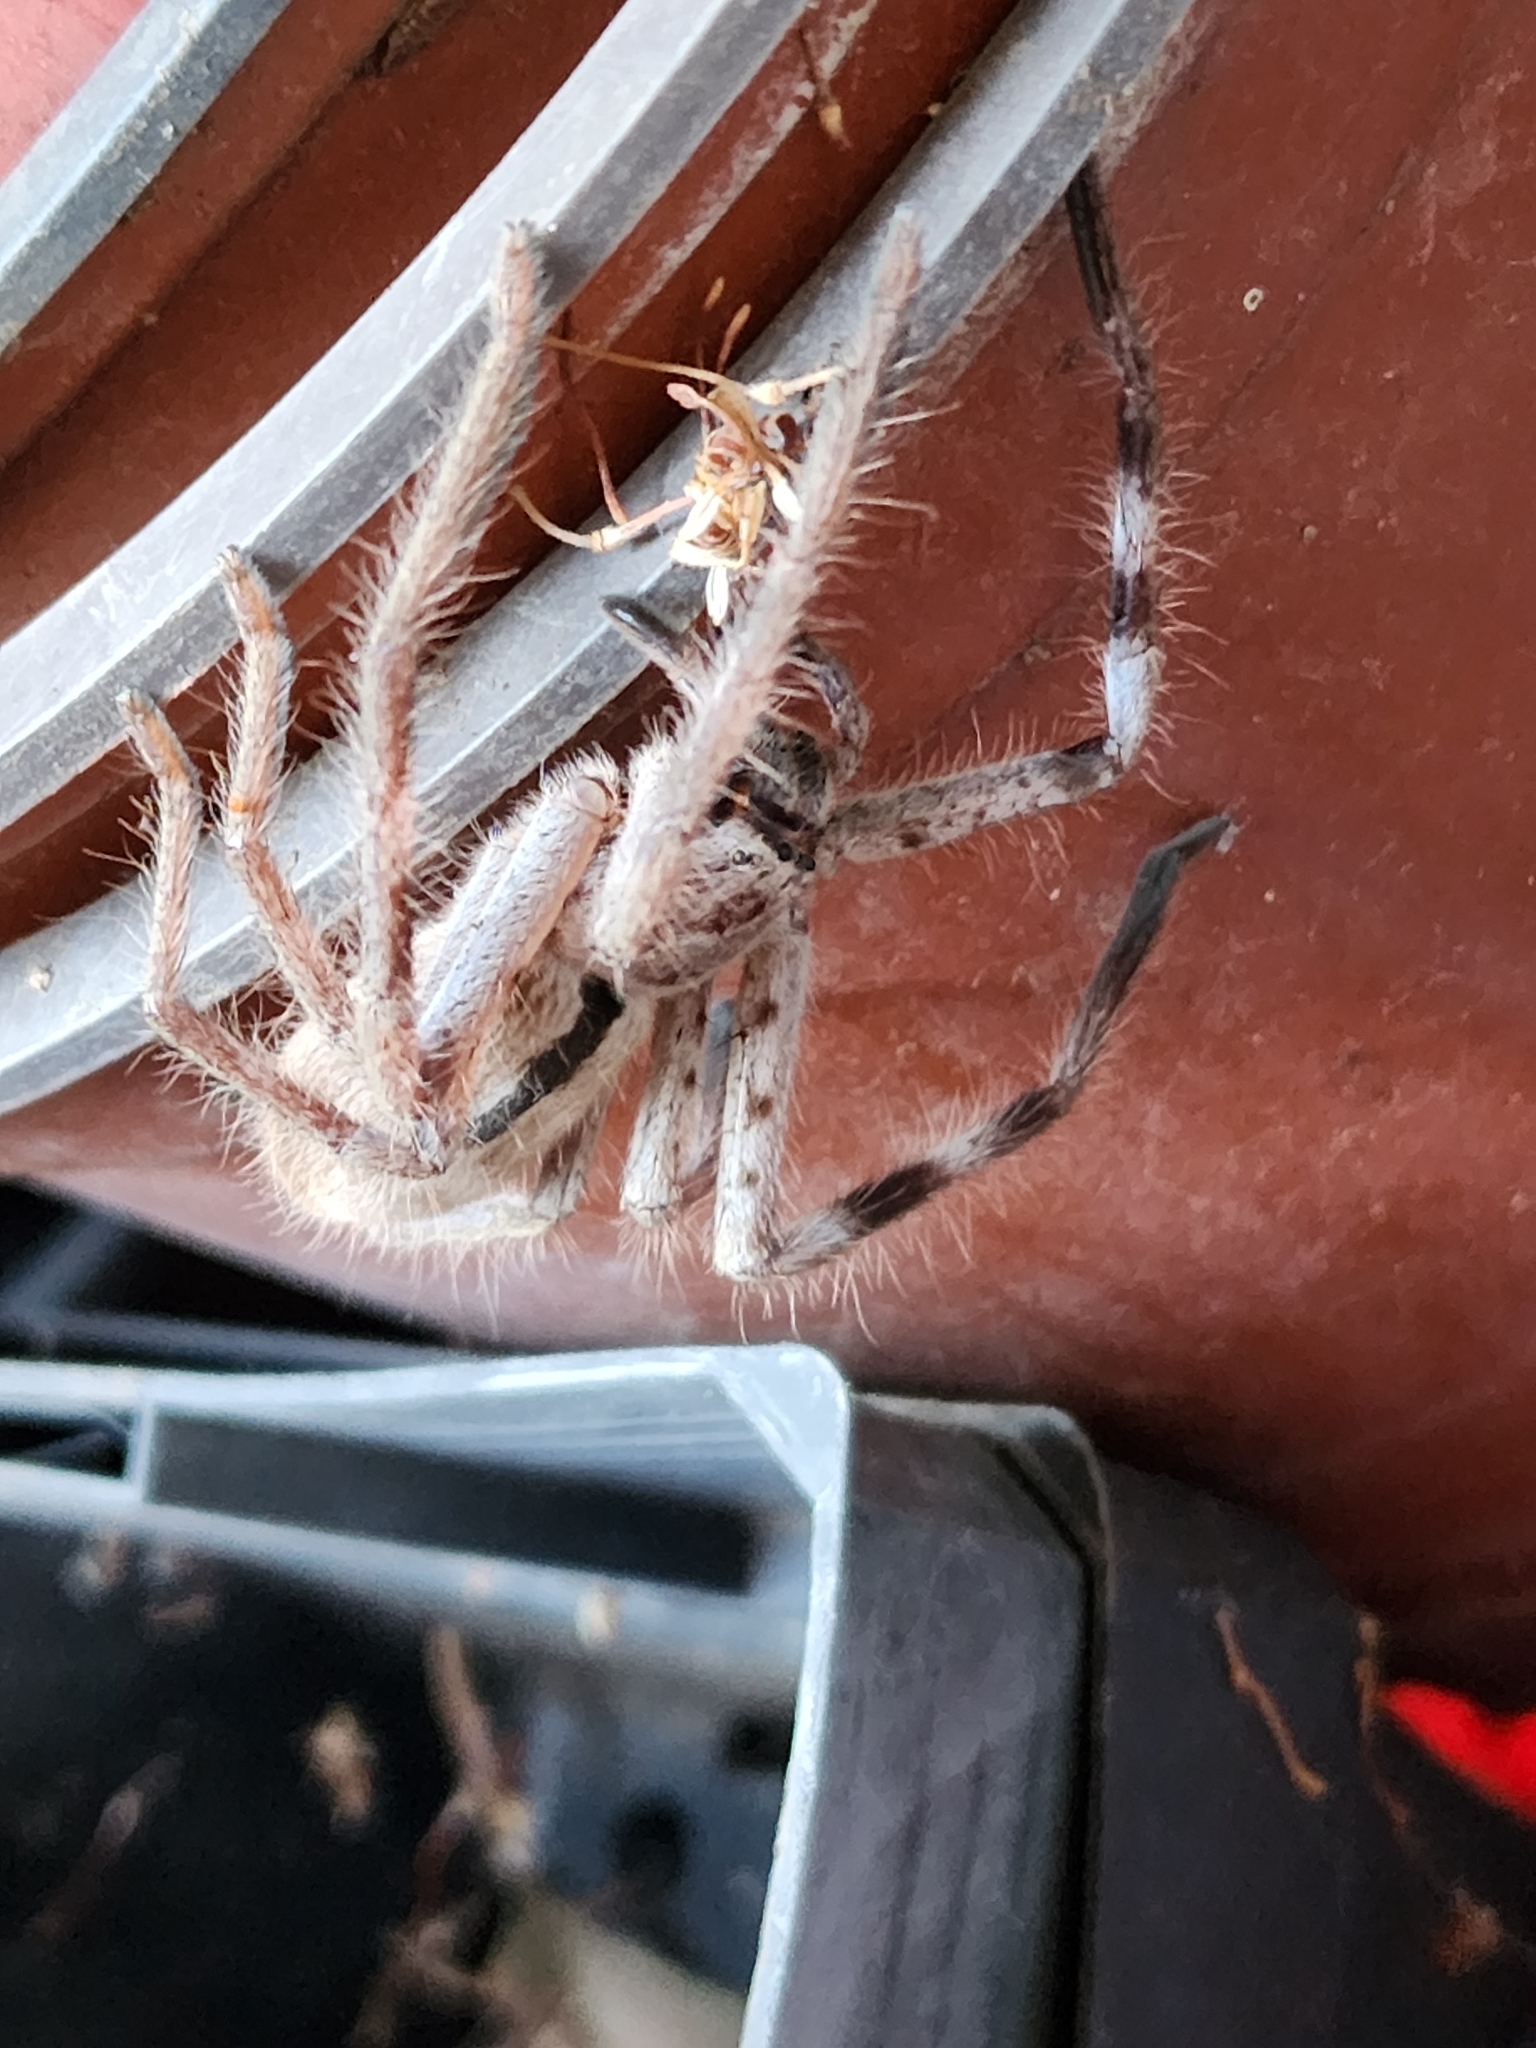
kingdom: Animalia
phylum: Arthropoda
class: Arachnida
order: Araneae
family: Sparassidae
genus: Holconia
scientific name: Holconia immanis
